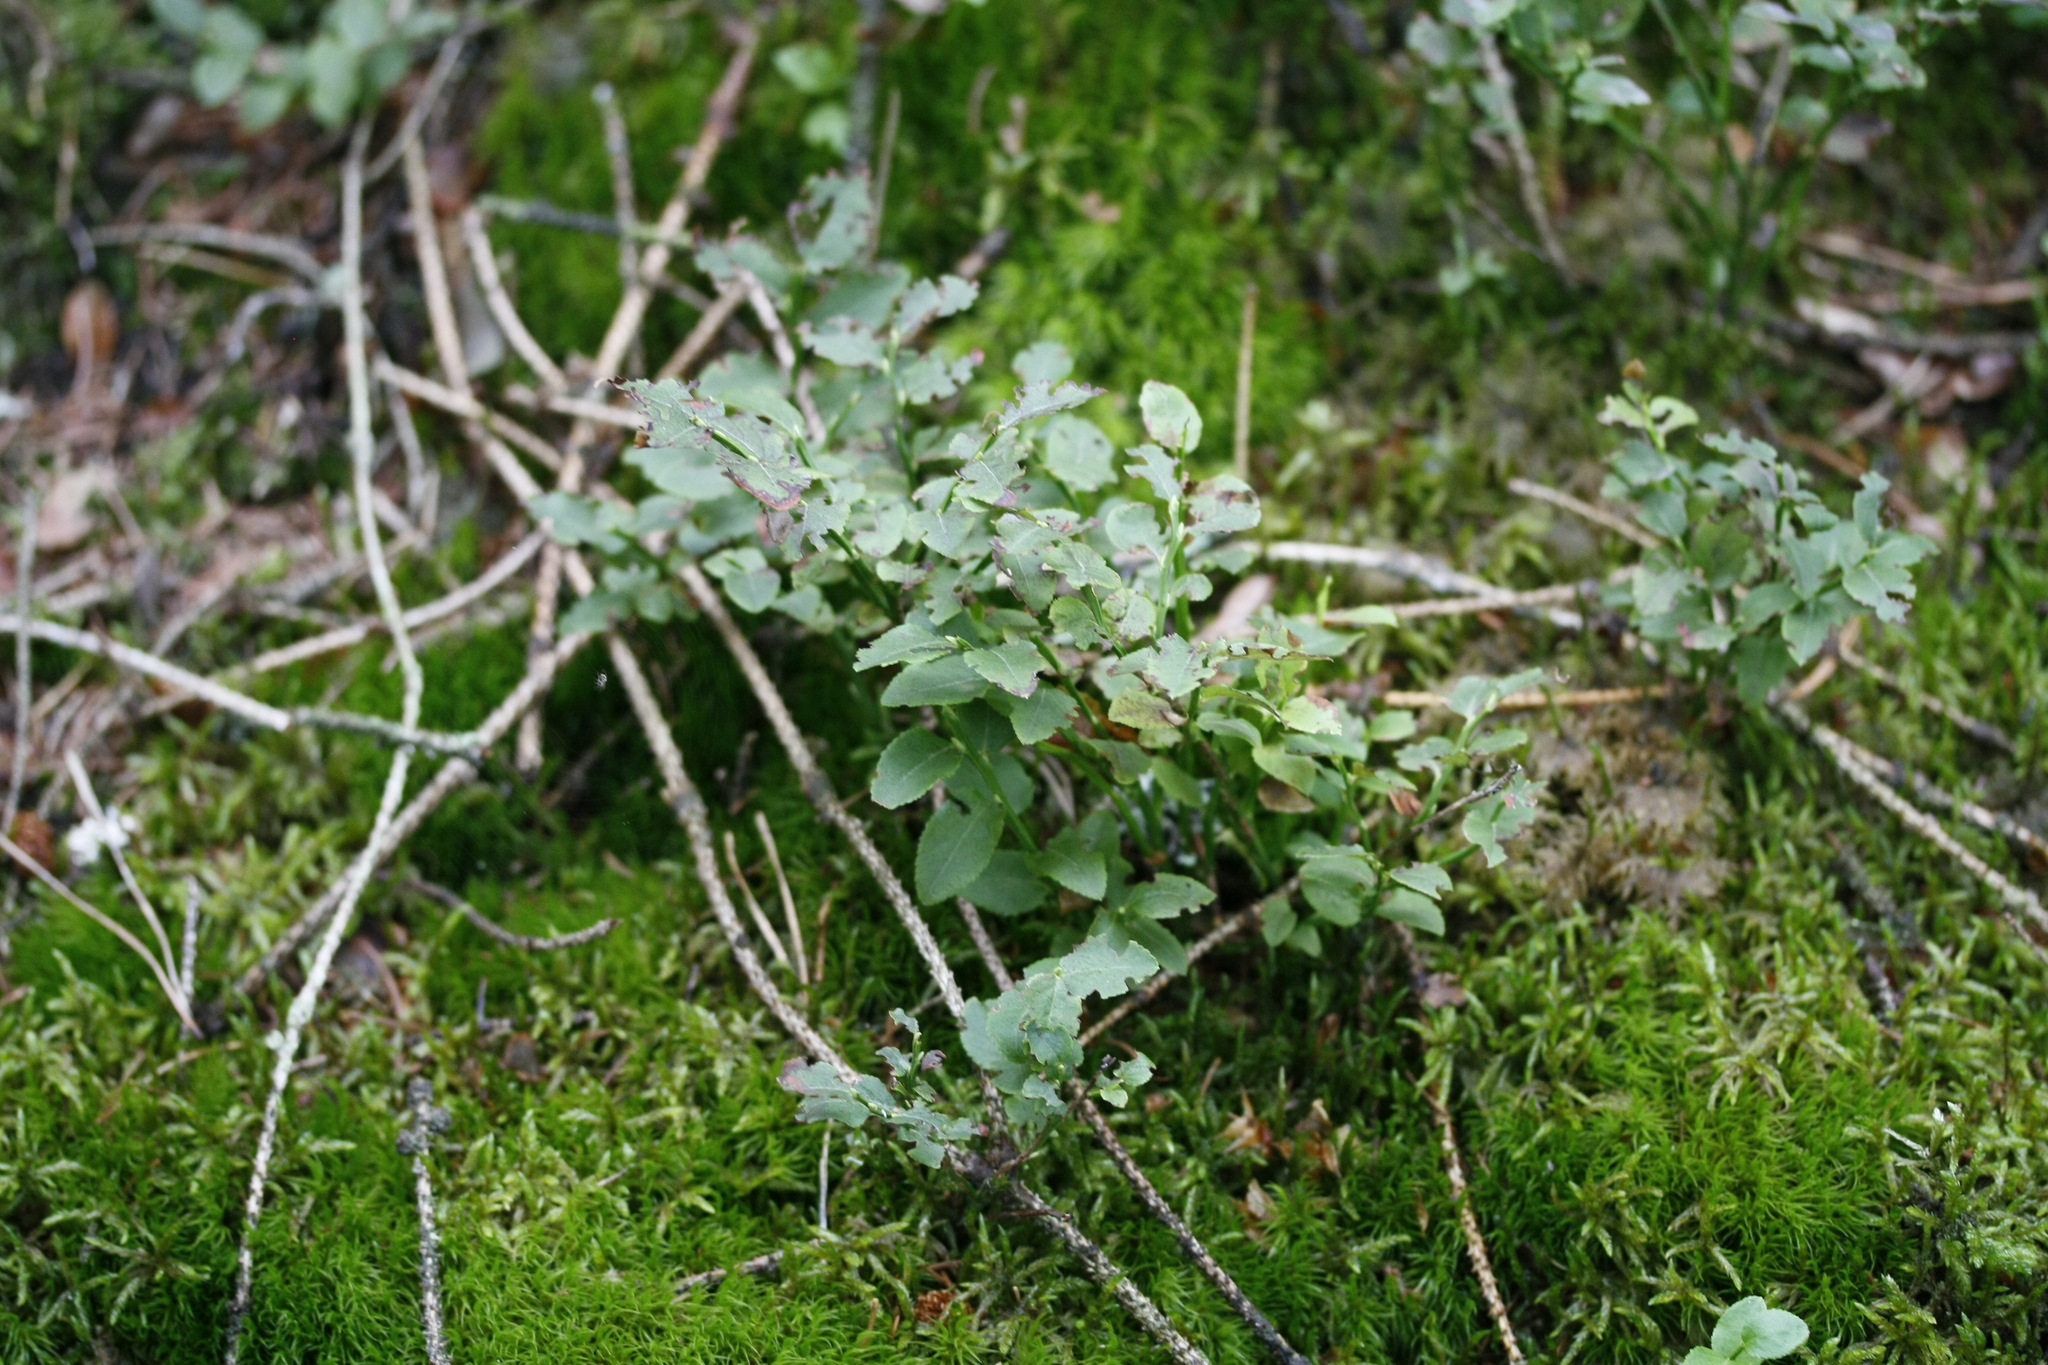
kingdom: Plantae
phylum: Tracheophyta
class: Magnoliopsida
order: Ericales
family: Ericaceae
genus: Vaccinium
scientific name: Vaccinium myrtillus
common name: Bilberry
